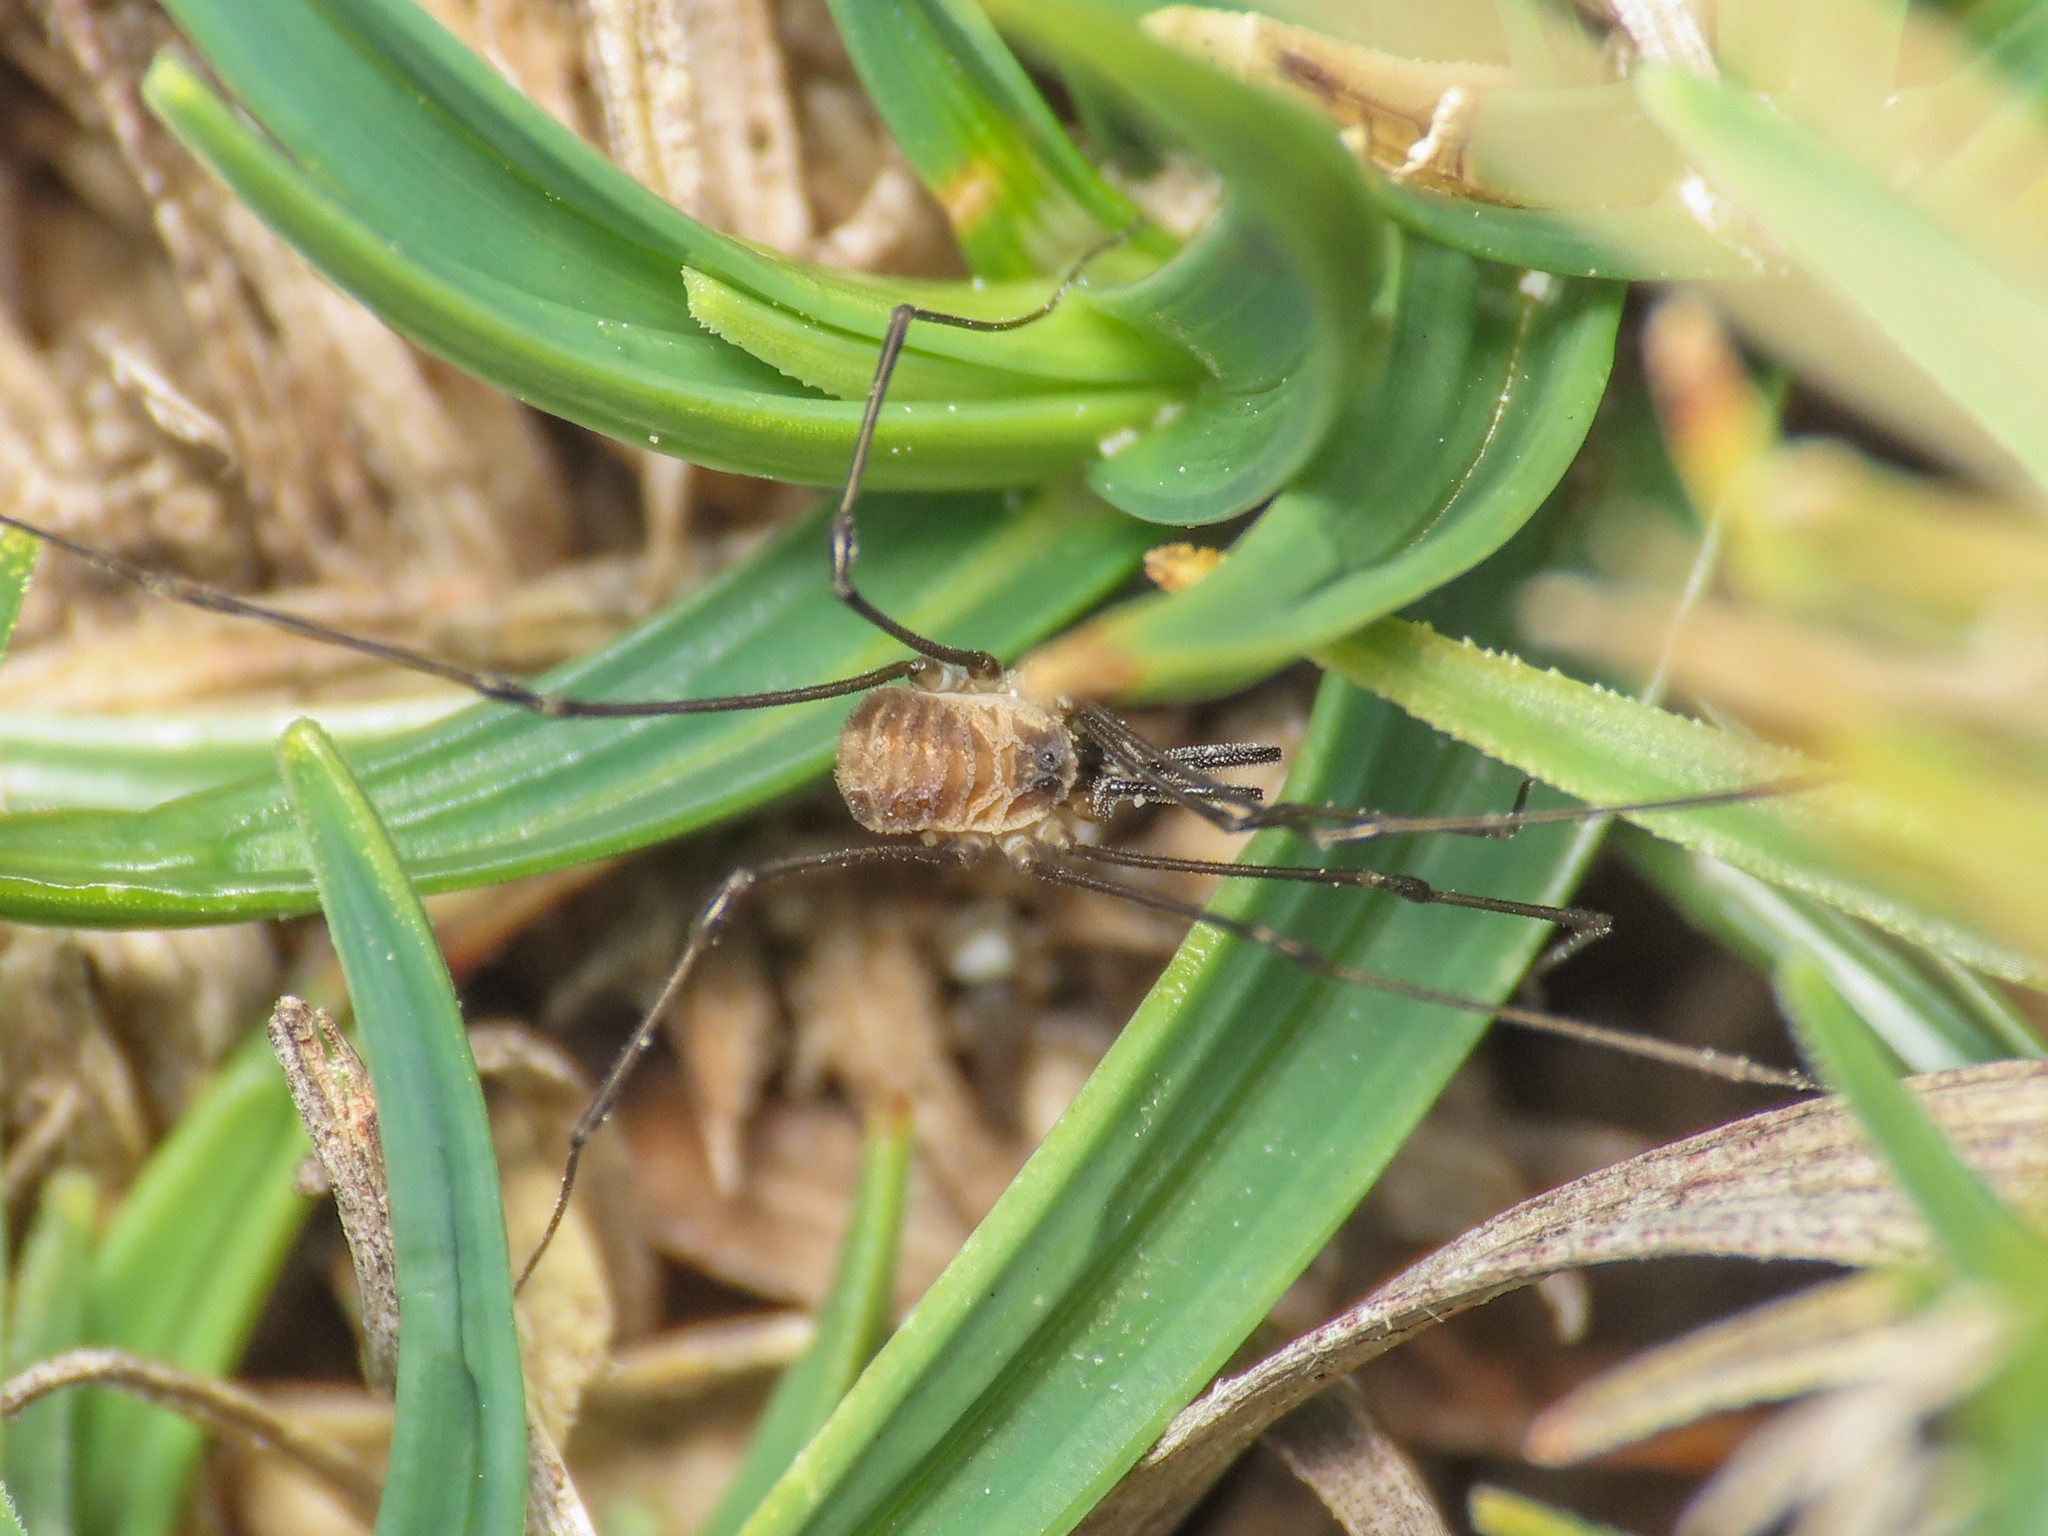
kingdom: Animalia
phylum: Arthropoda
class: Arachnida
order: Opiliones
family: Nemastomatidae
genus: Mitostoma
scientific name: Mitostoma chrysomelas
